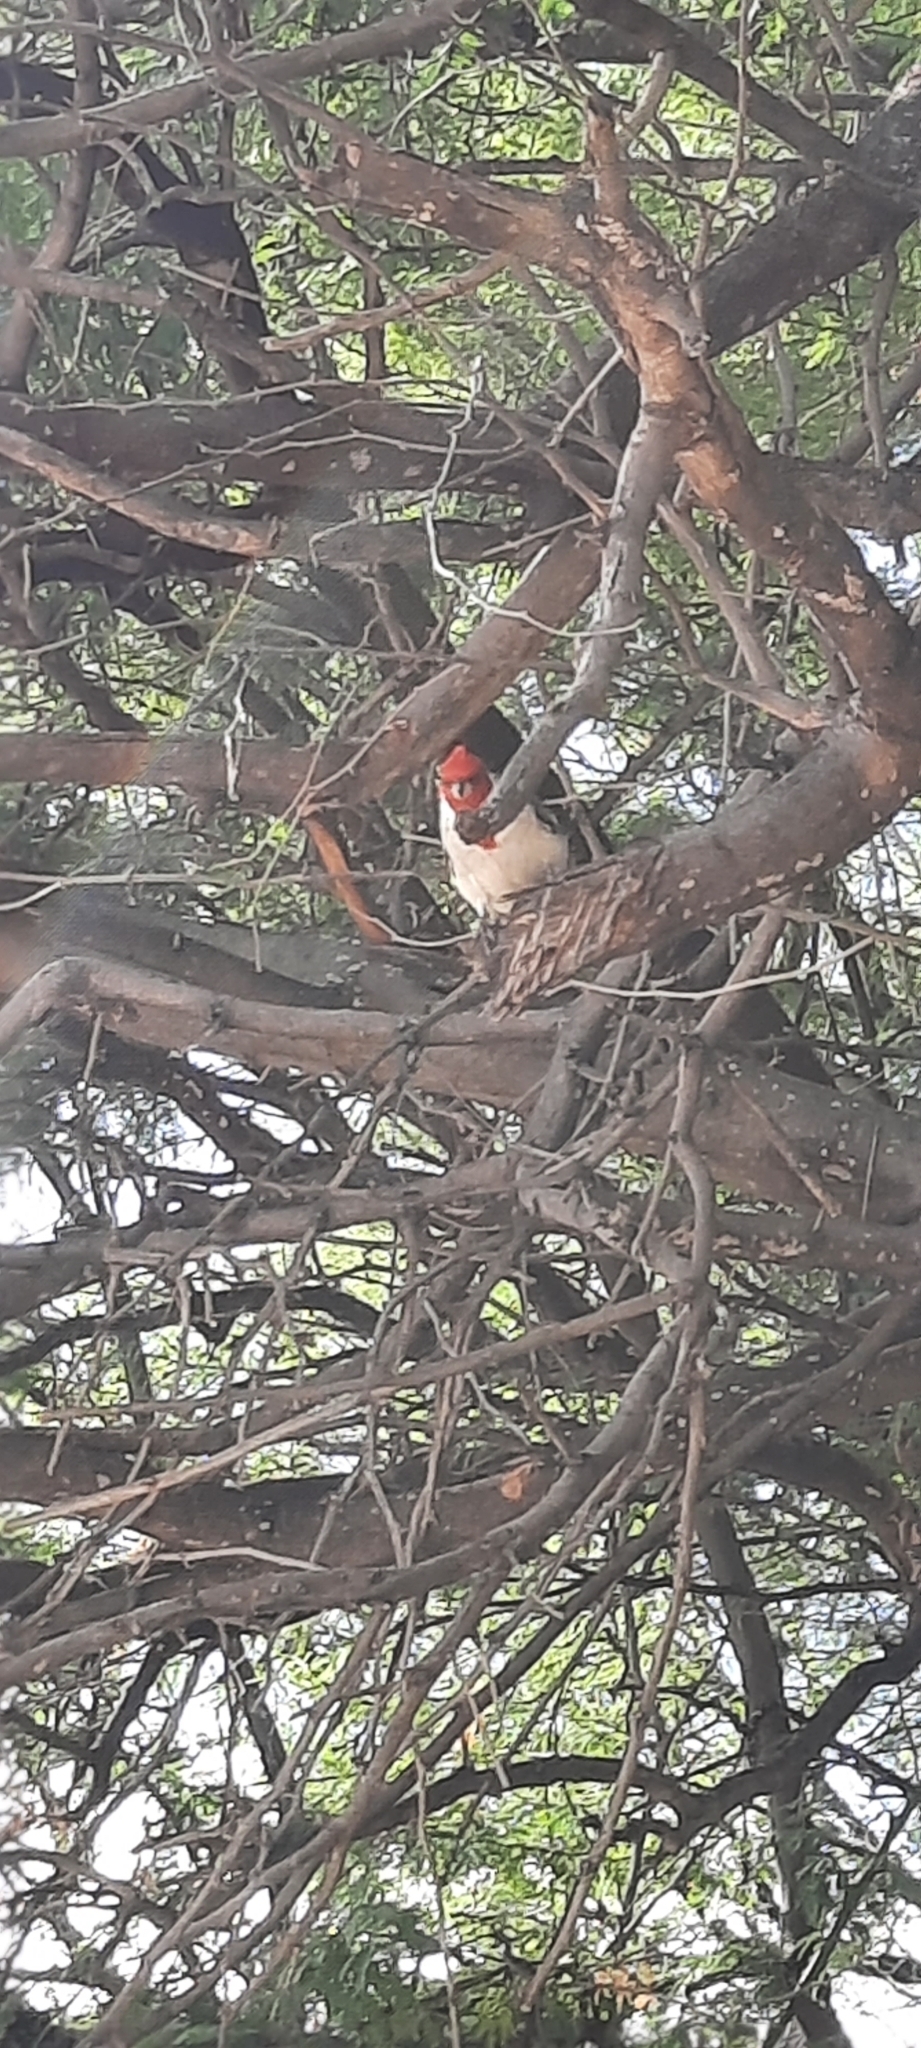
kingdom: Animalia
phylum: Chordata
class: Aves
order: Passeriformes
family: Thraupidae
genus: Paroaria
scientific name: Paroaria coronata
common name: Red-crested cardinal
